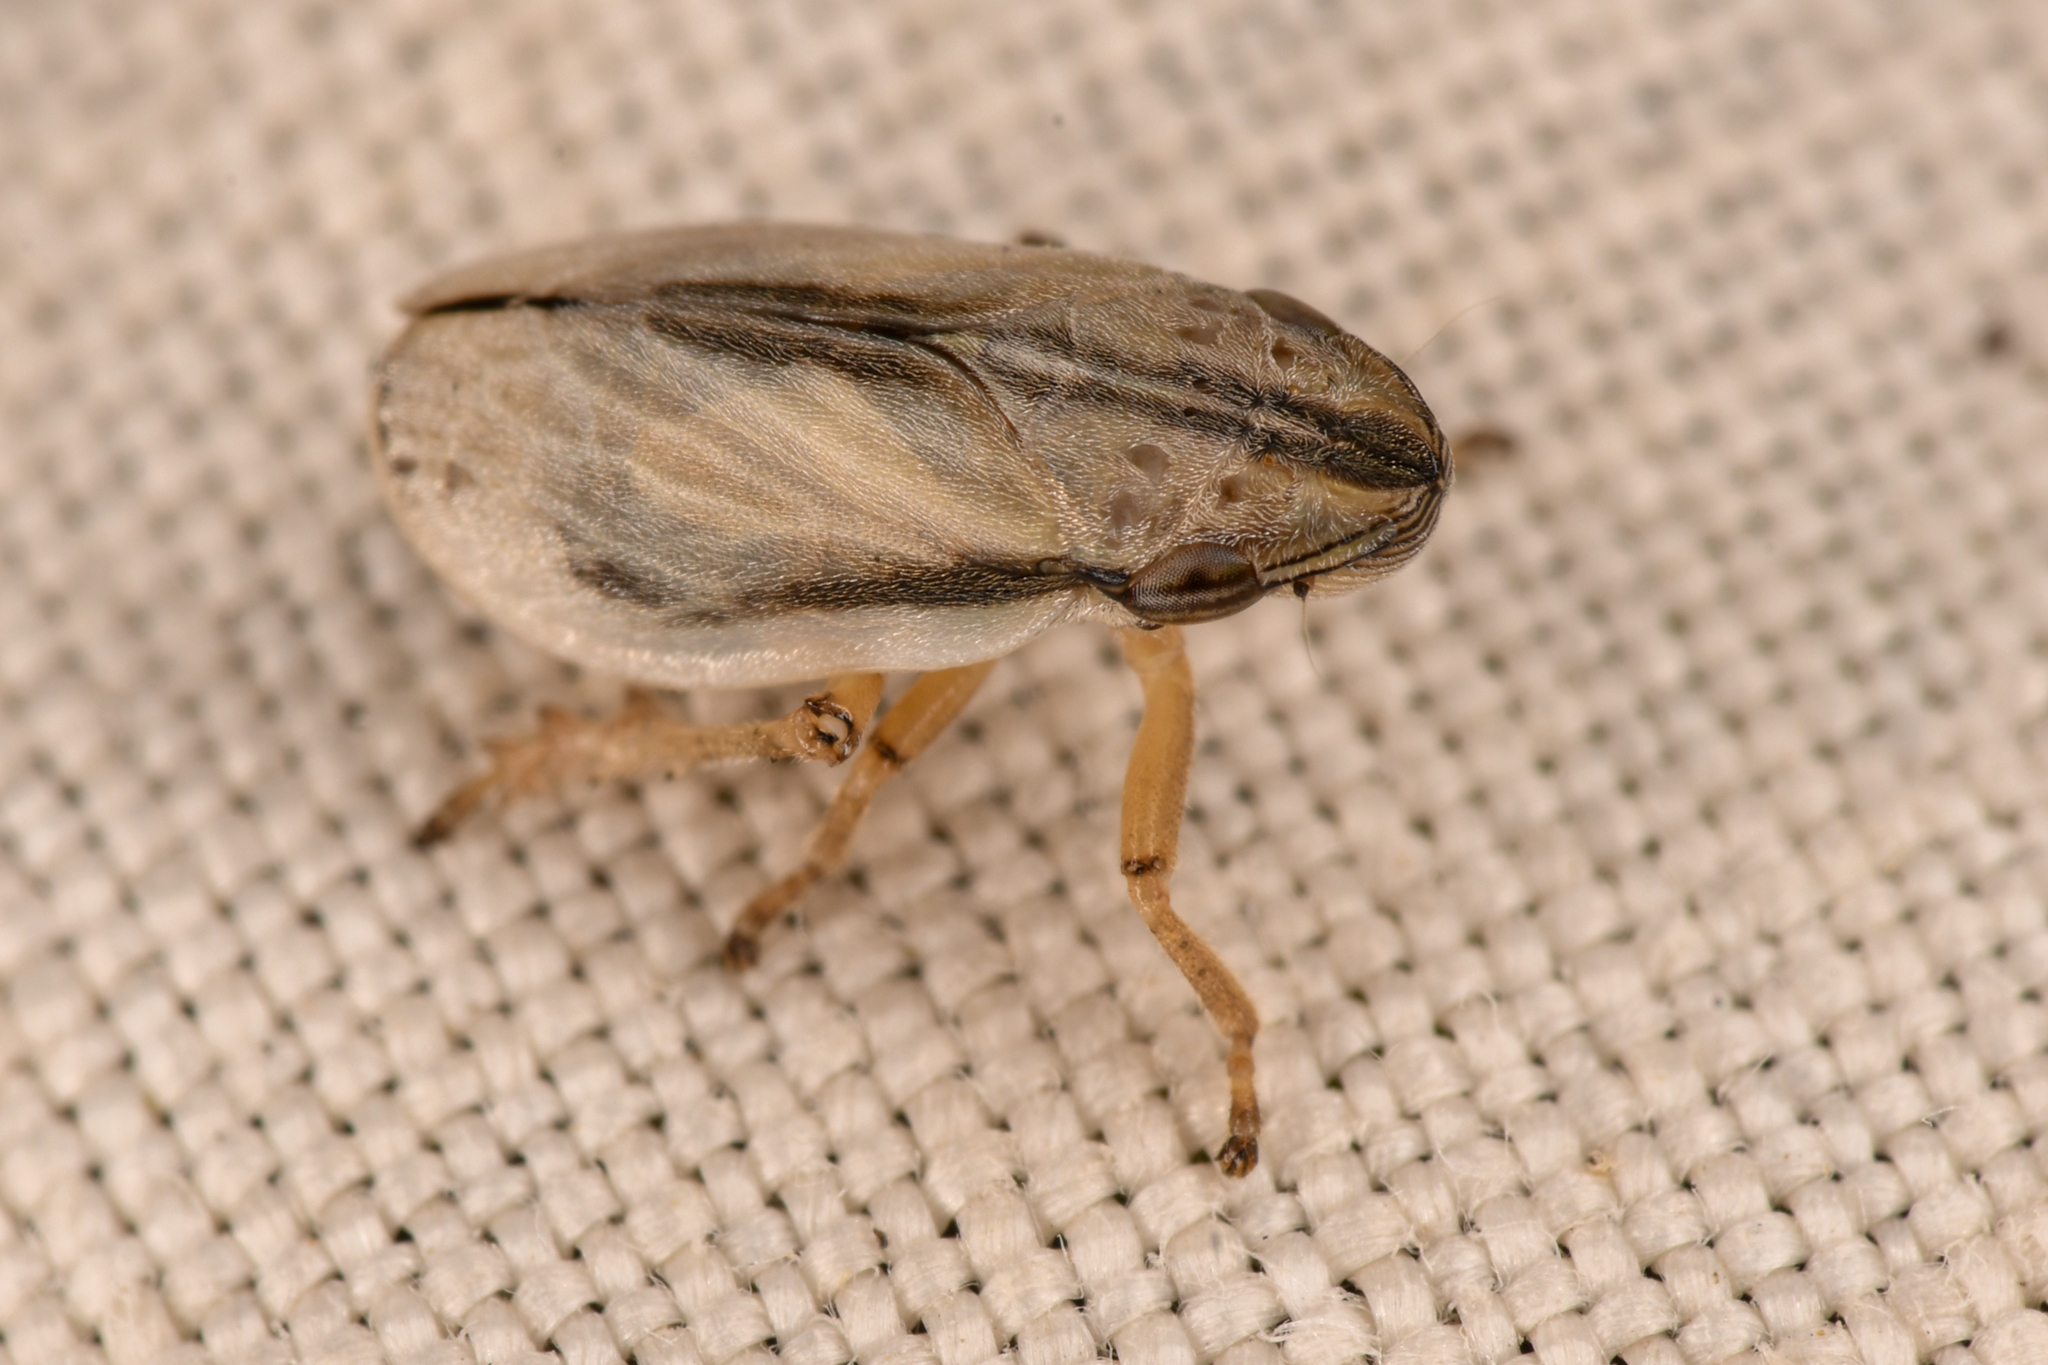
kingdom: Animalia
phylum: Arthropoda
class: Insecta
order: Hemiptera
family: Aphrophoridae
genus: Philaenarcys
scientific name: Philaenarcys bilineata
